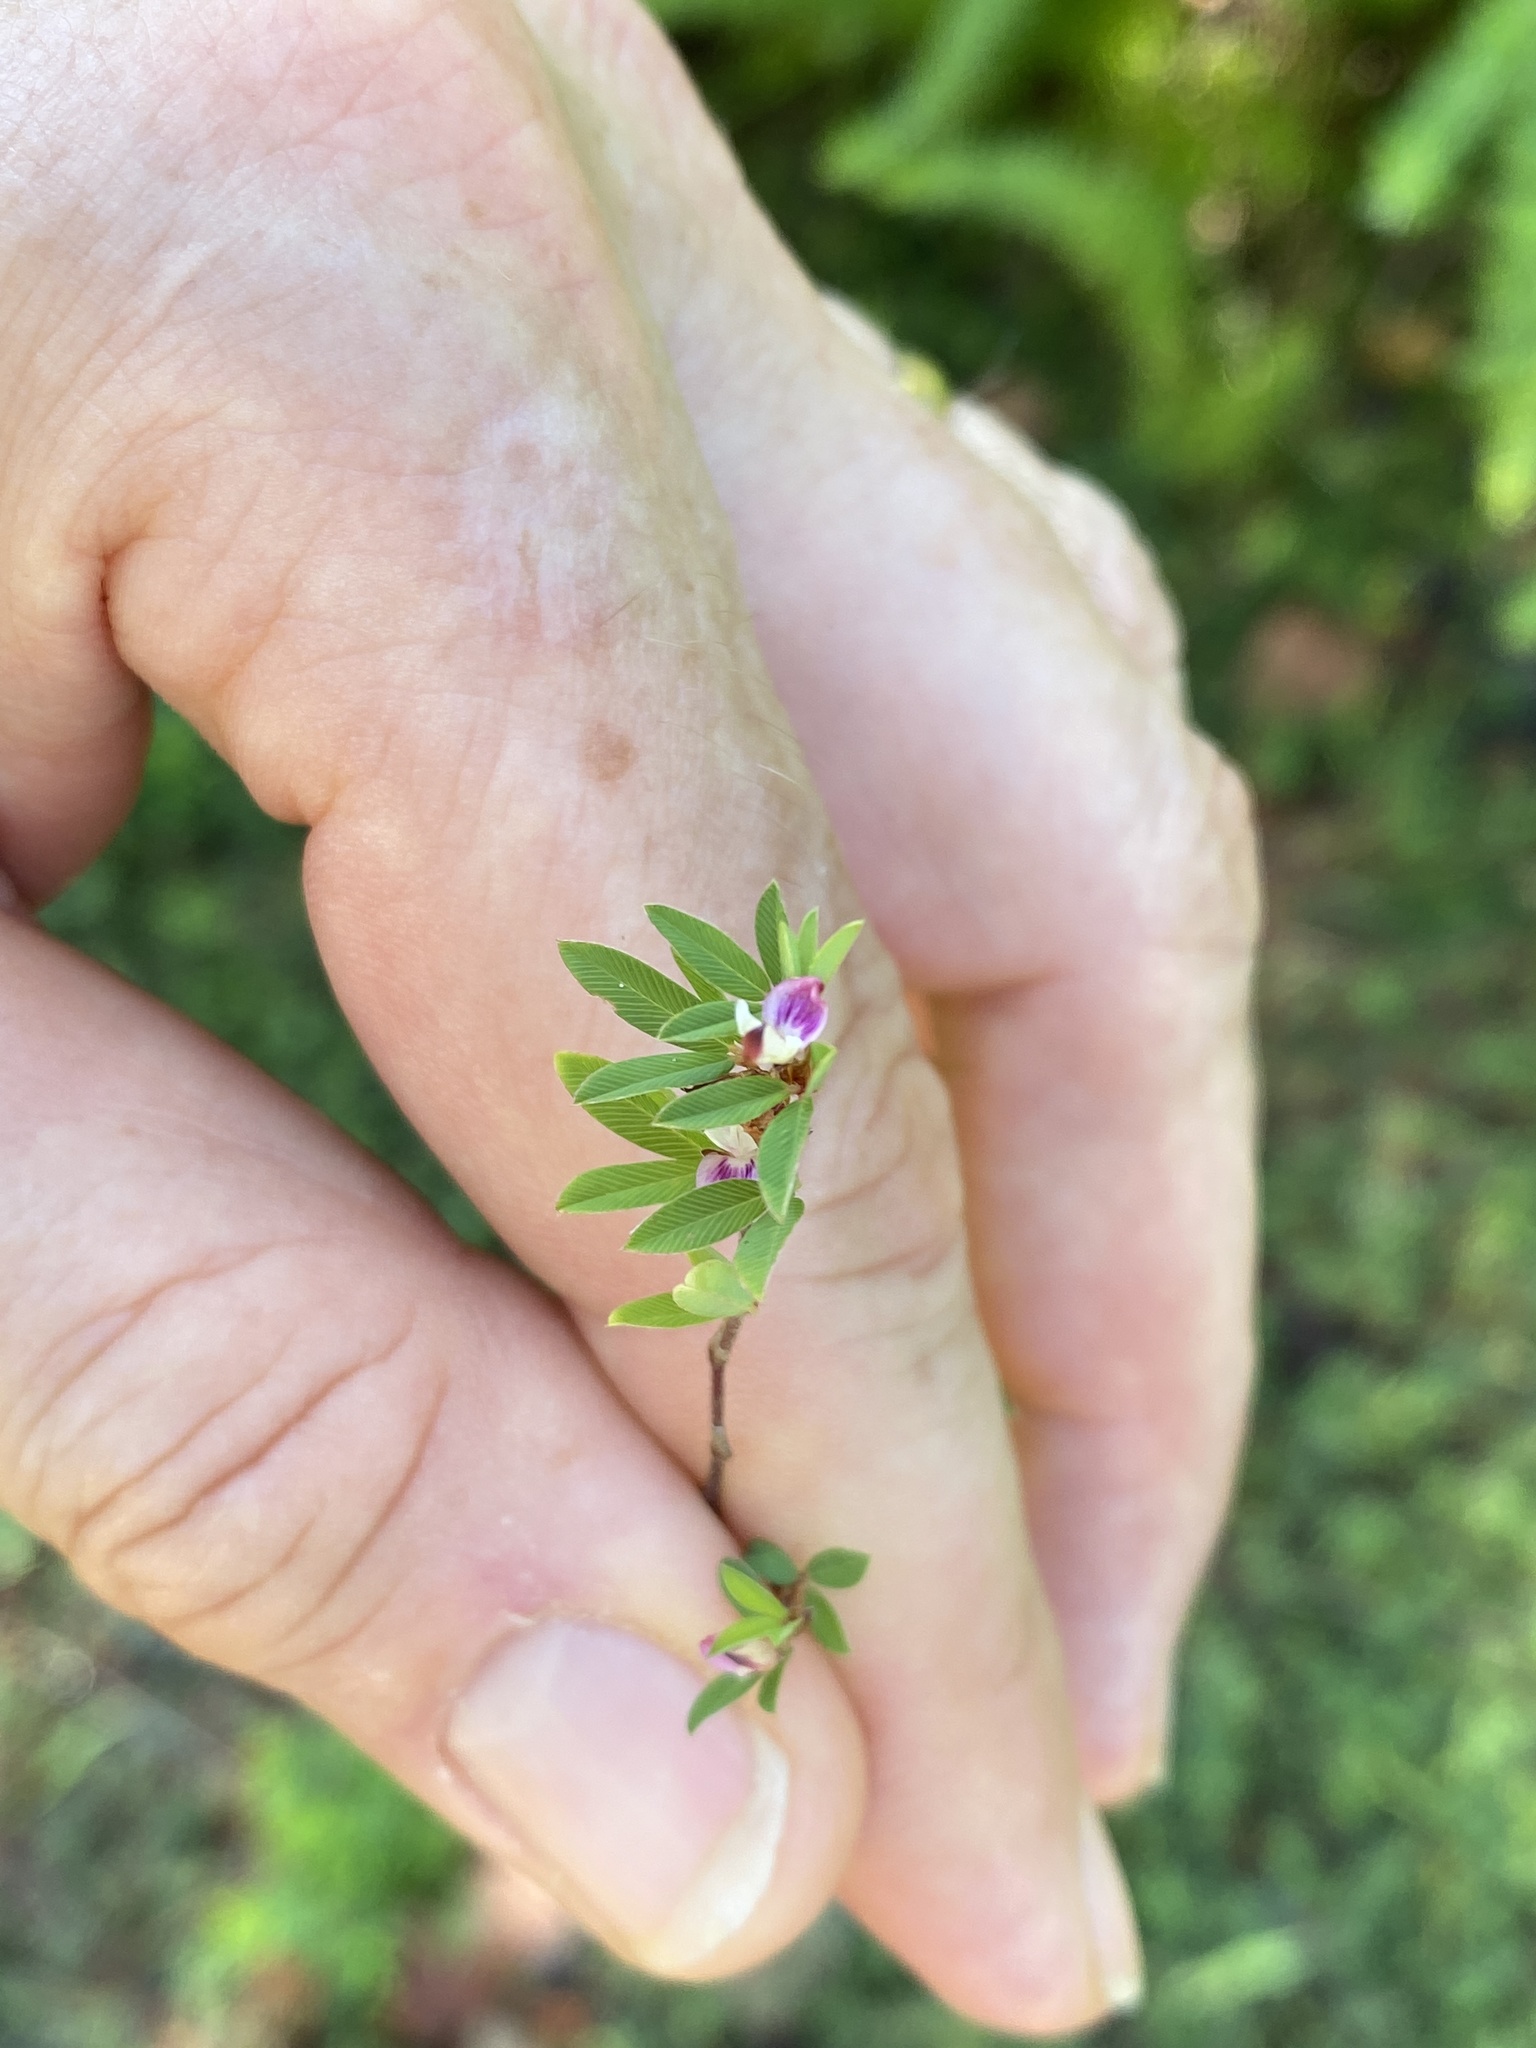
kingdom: Plantae
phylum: Tracheophyta
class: Magnoliopsida
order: Fabales
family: Fabaceae
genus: Kummerowia
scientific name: Kummerowia striata
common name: Japanese clover
